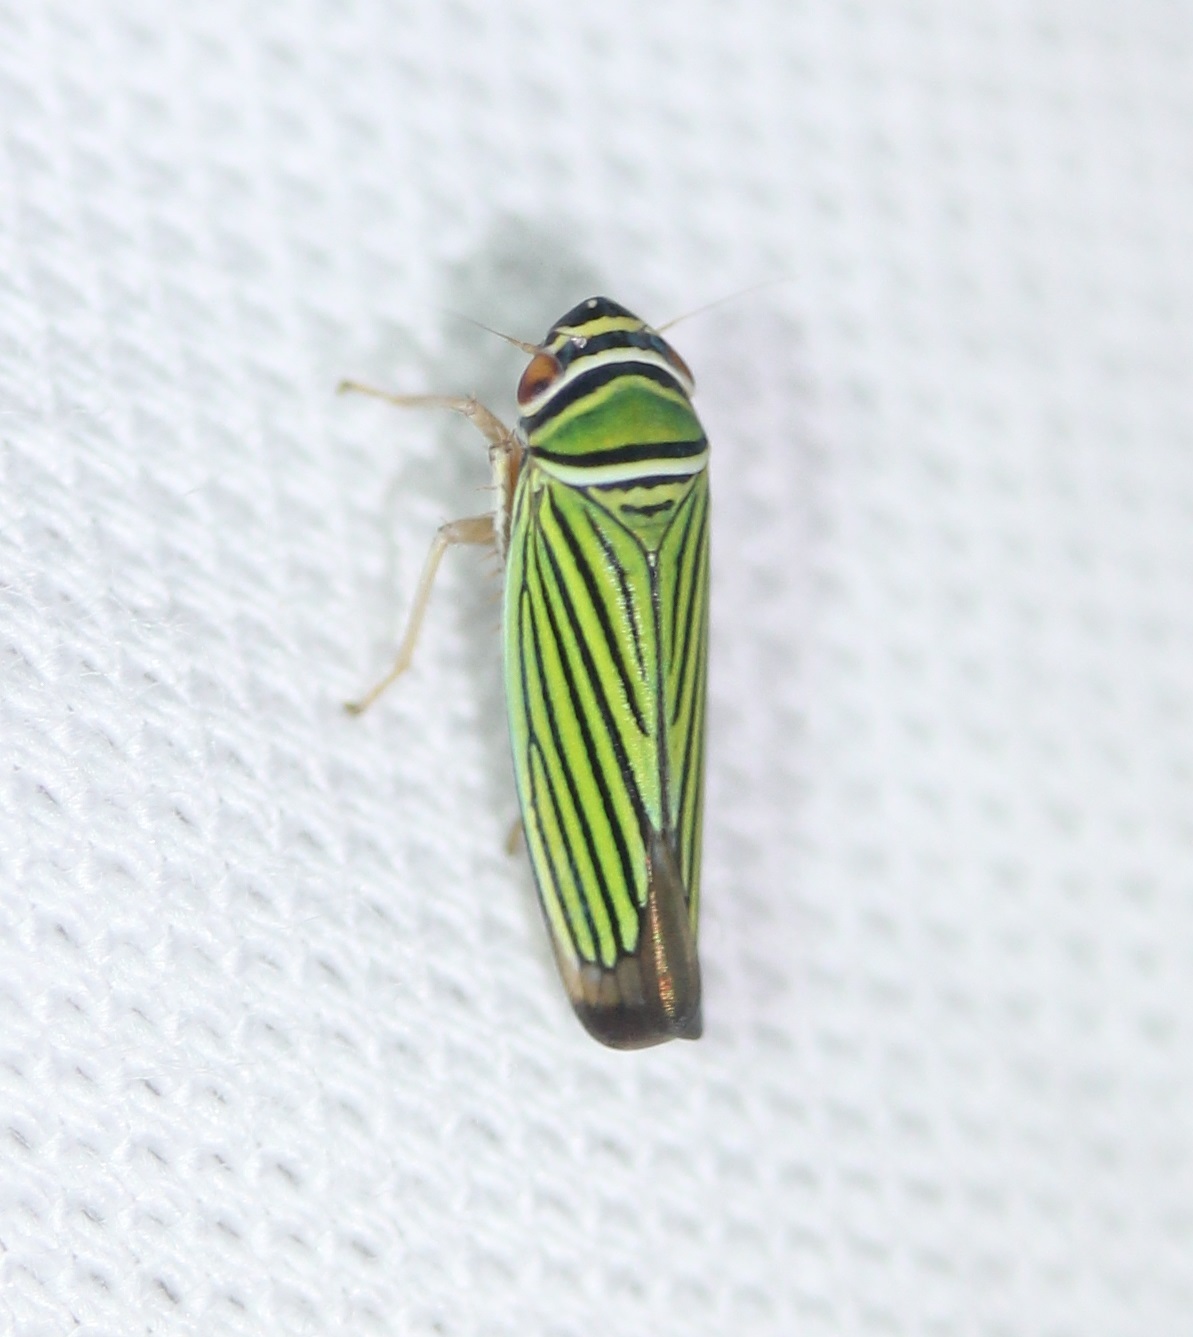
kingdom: Animalia
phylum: Arthropoda
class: Insecta
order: Hemiptera
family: Cicadellidae
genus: Tylozygus
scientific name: Tylozygus bifidus
